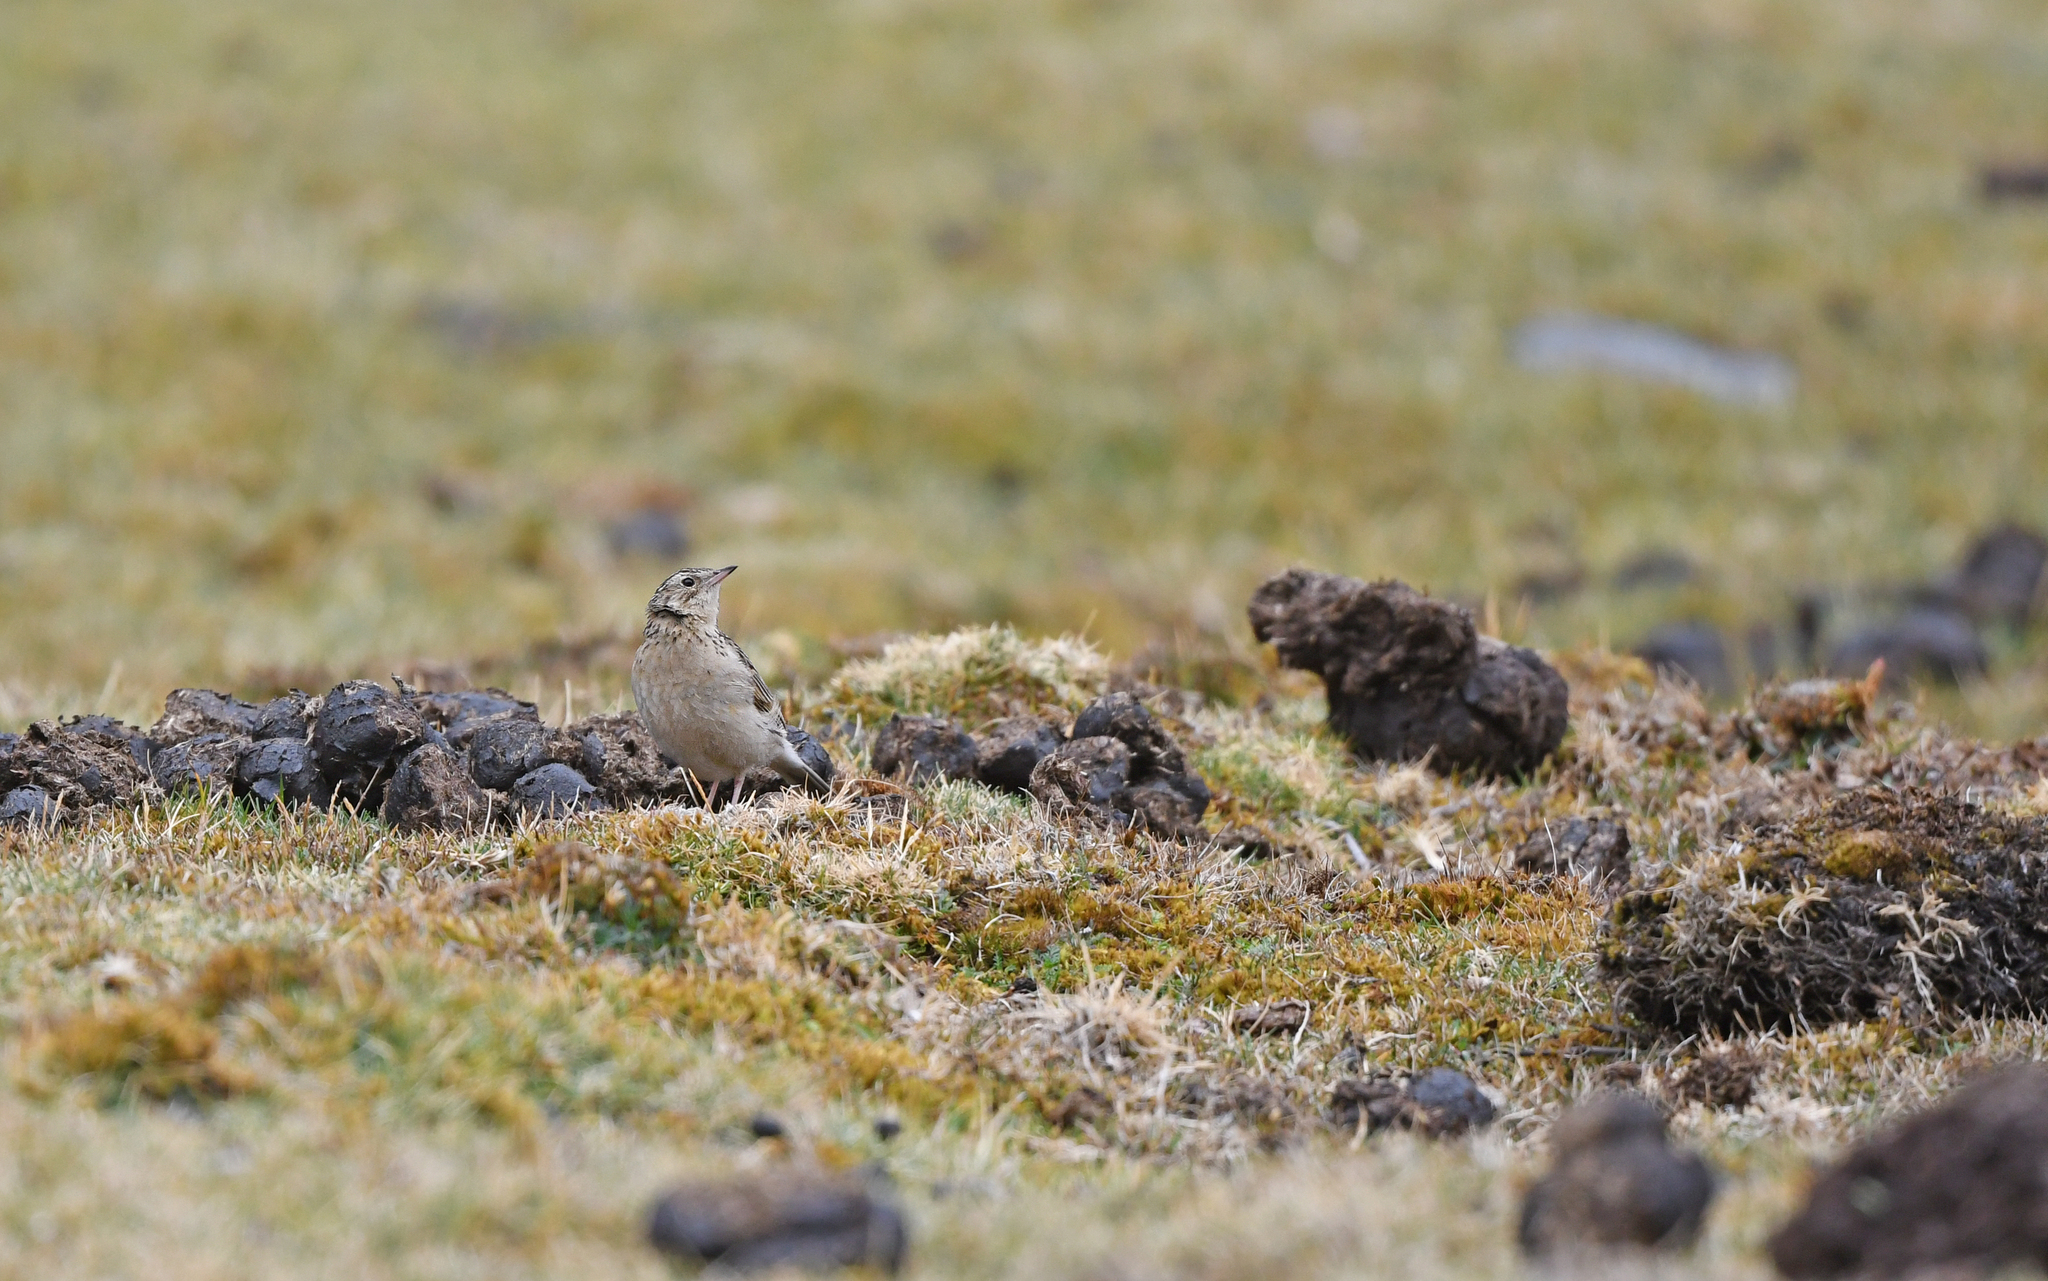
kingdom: Animalia
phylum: Chordata
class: Aves
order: Passeriformes
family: Motacillidae
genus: Anthus
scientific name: Anthus bogotensis
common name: Paramo pipit
